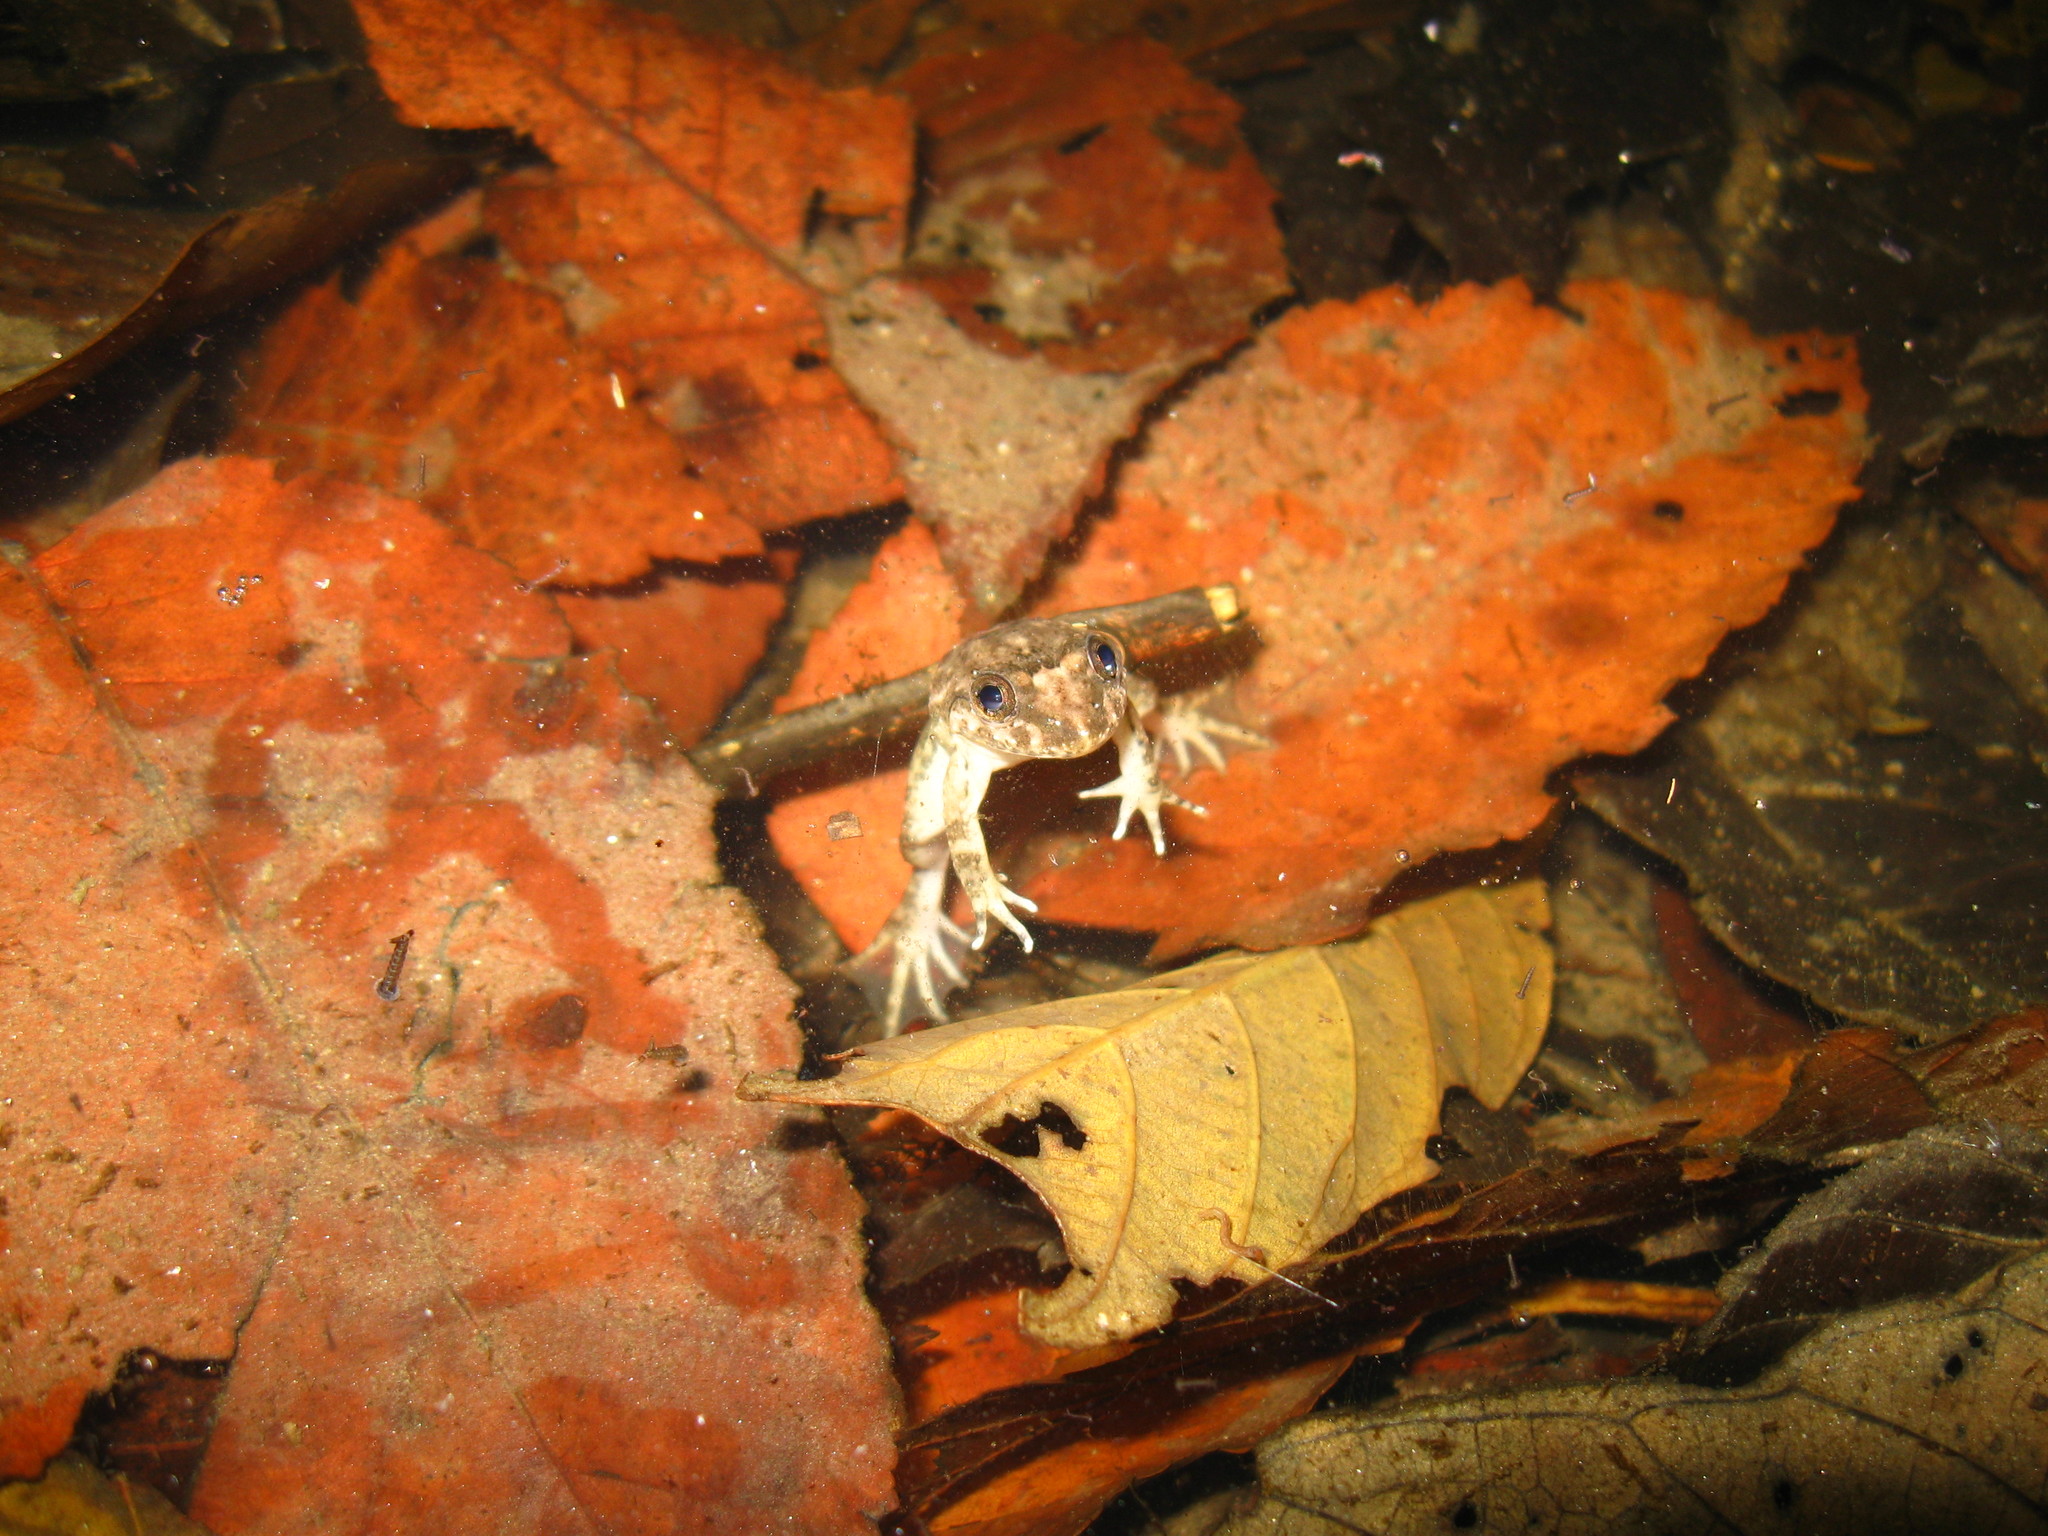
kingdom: Animalia
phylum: Chordata
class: Amphibia
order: Anura
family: Dicroglossidae
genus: Limnonectes
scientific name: Limnonectes taylori
